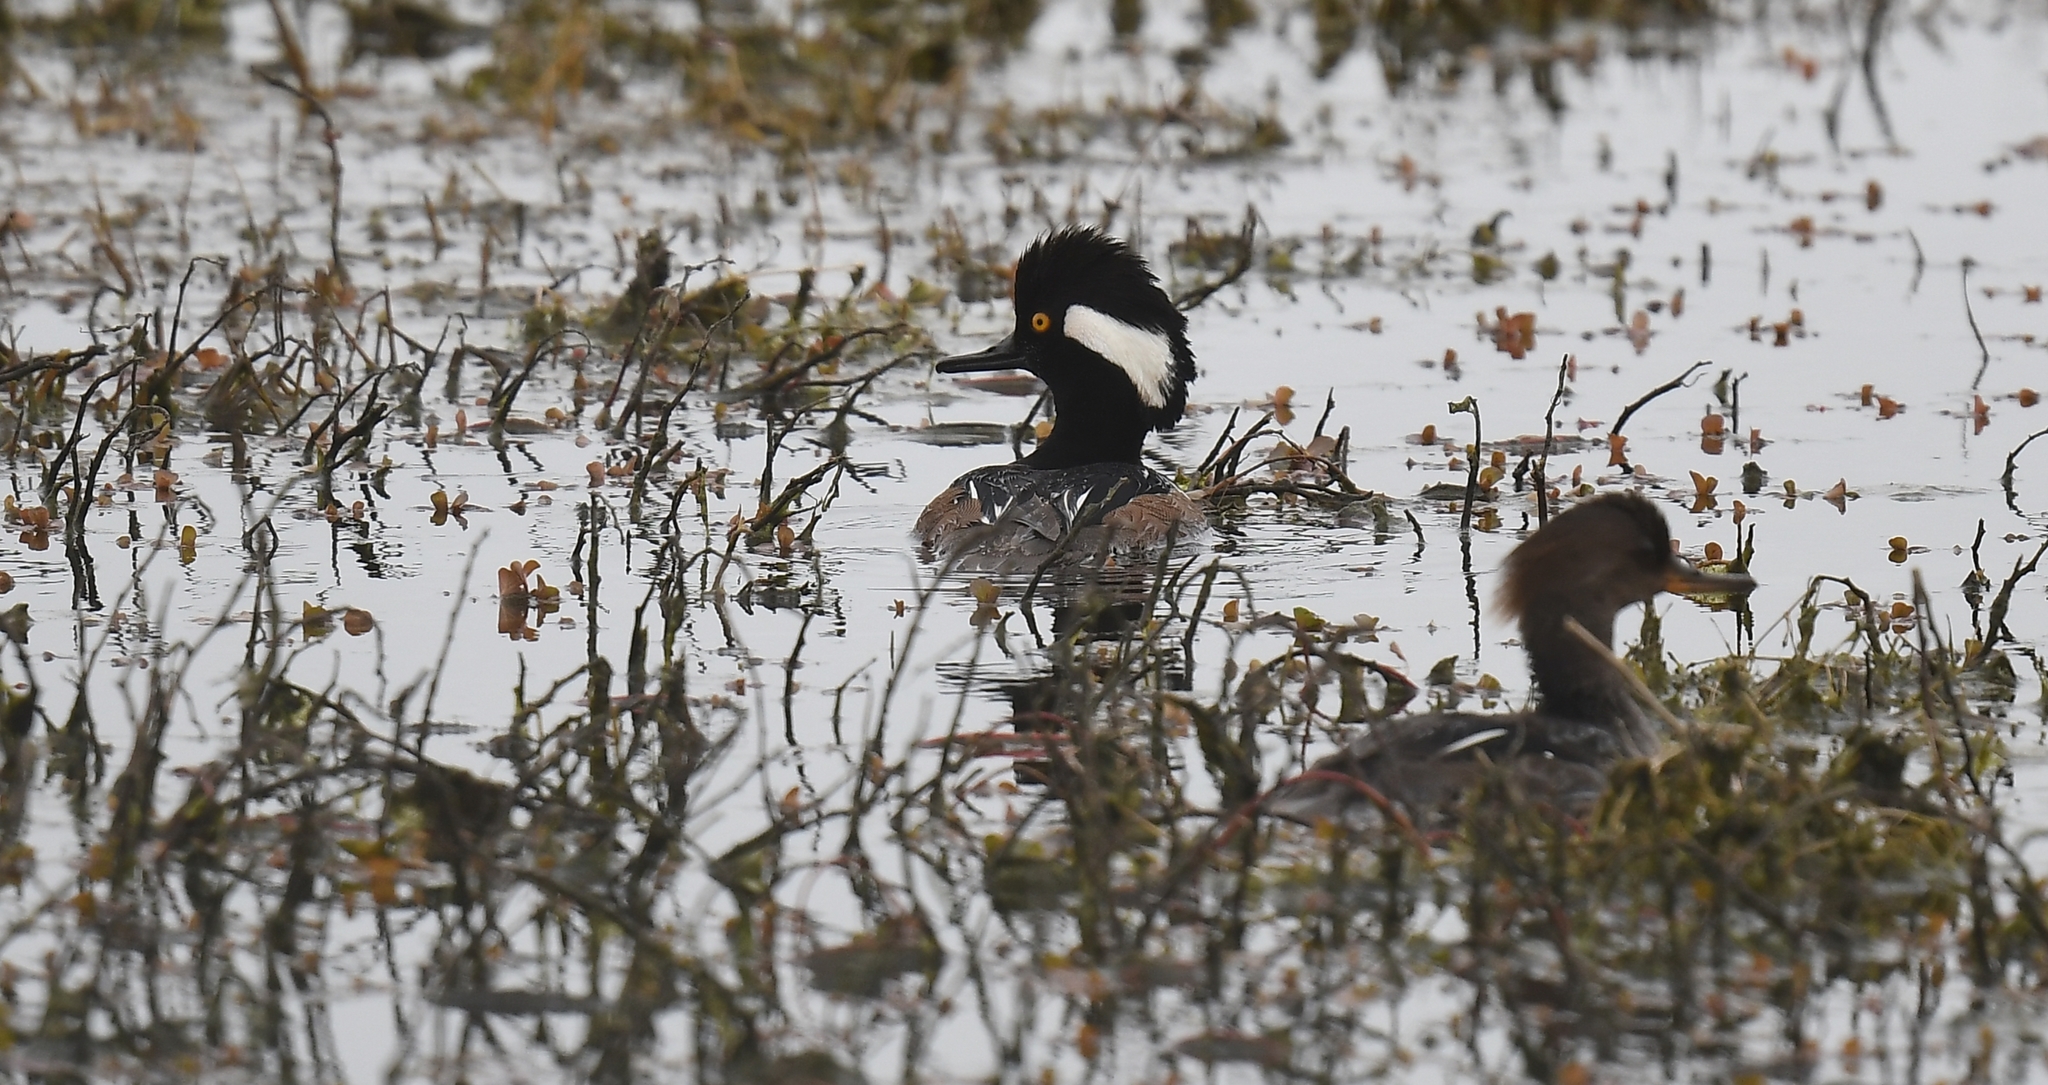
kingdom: Animalia
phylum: Chordata
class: Aves
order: Anseriformes
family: Anatidae
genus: Lophodytes
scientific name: Lophodytes cucullatus
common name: Hooded merganser
